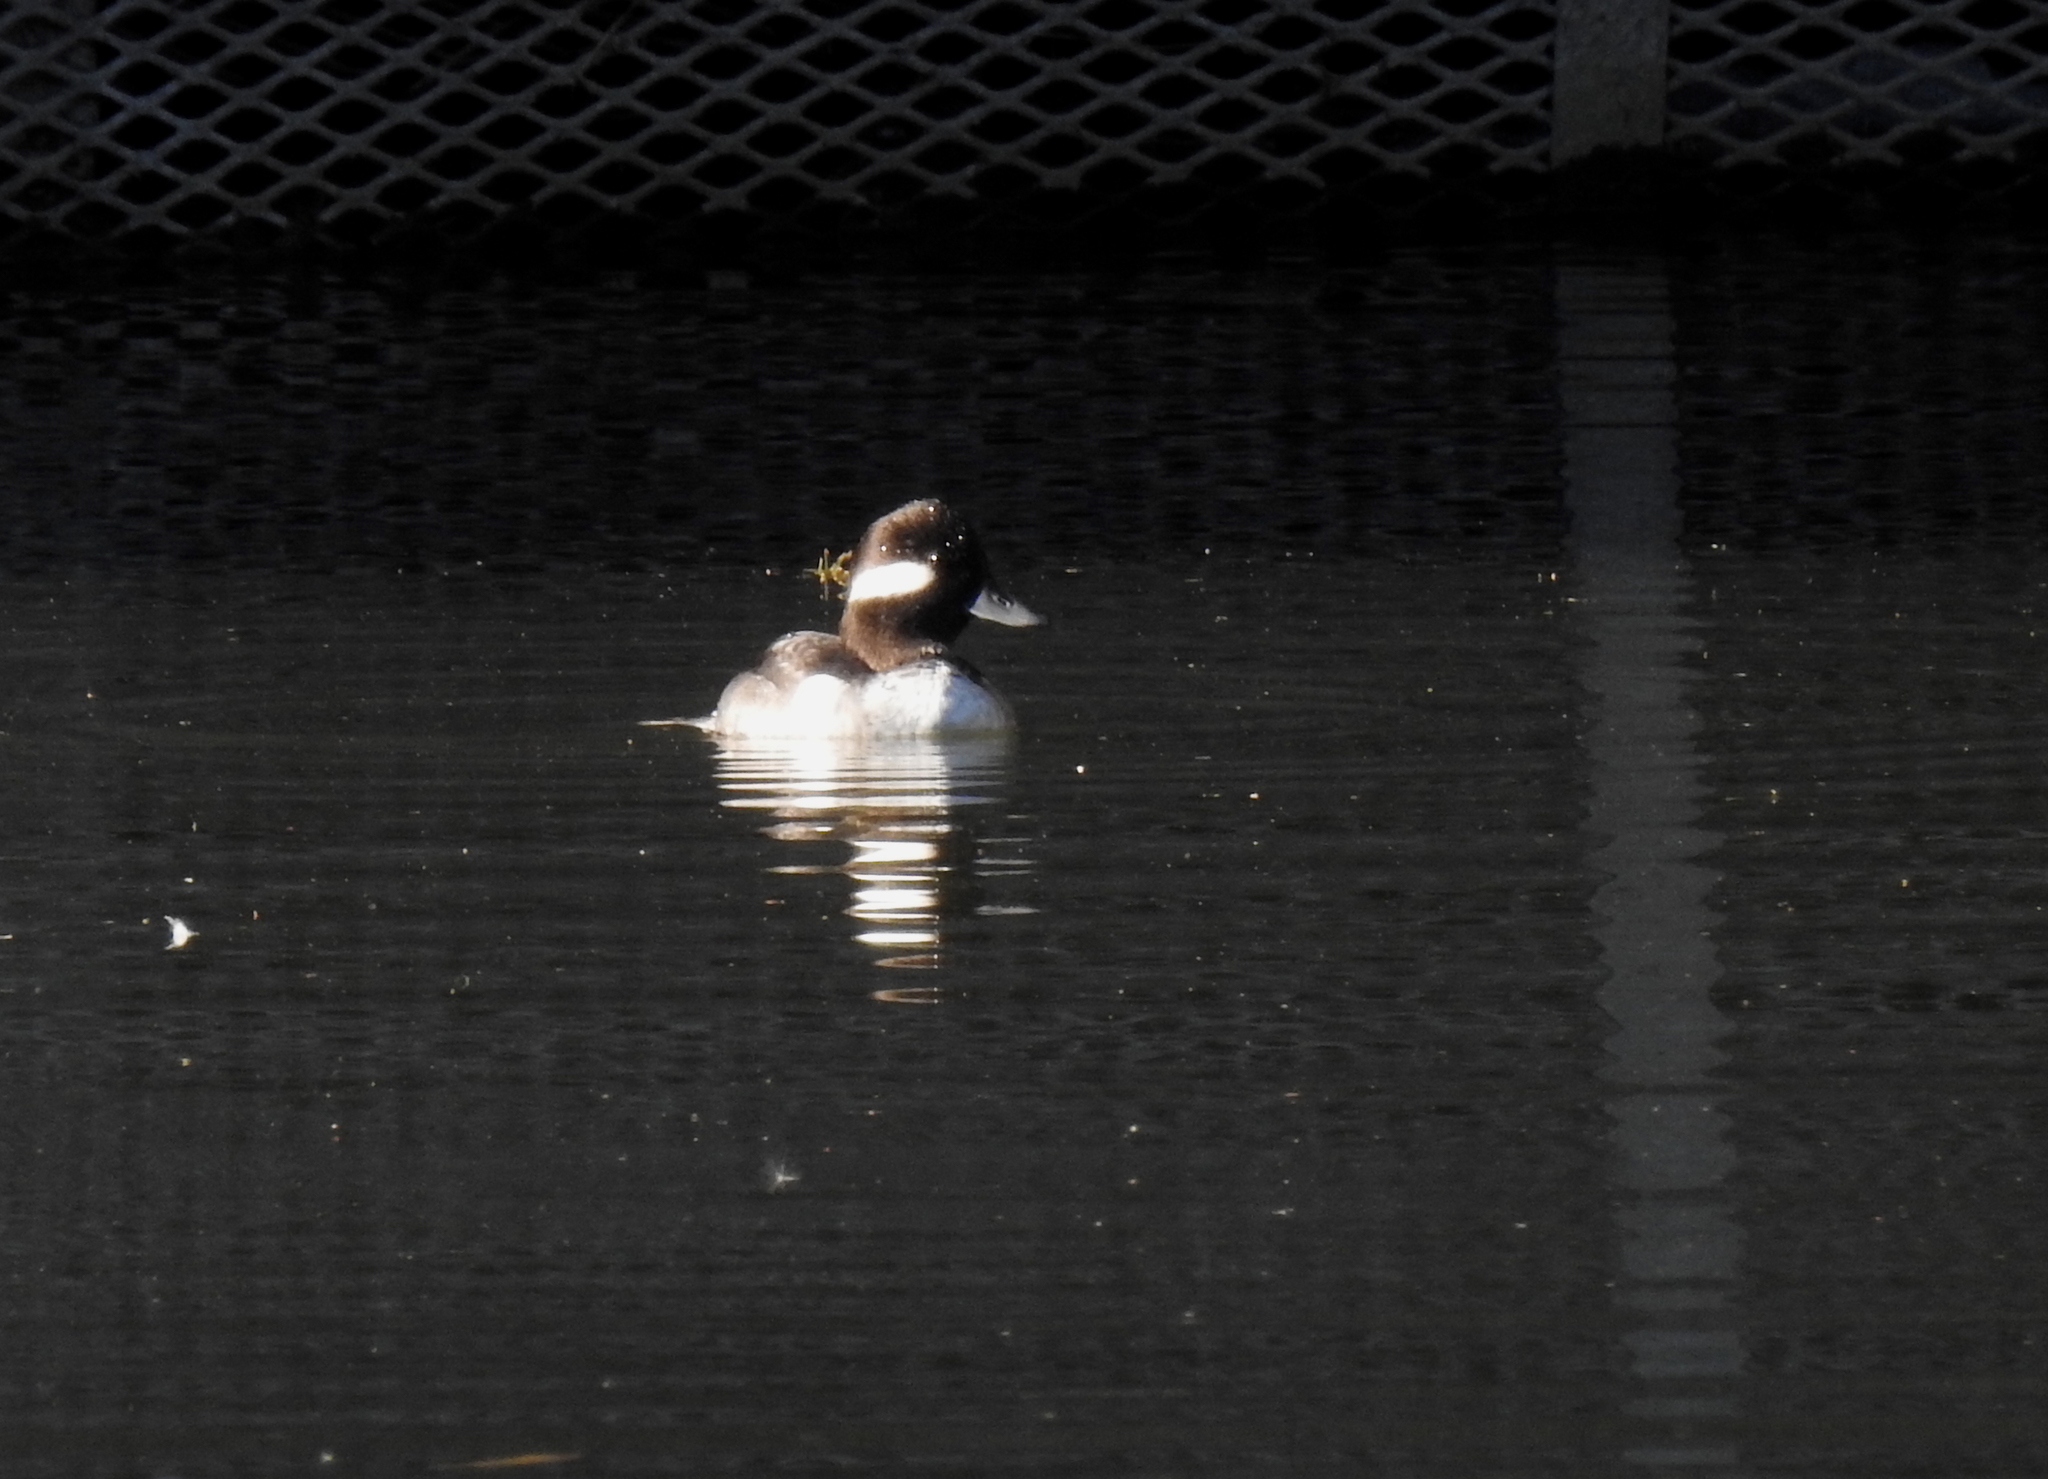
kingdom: Animalia
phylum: Chordata
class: Aves
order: Anseriformes
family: Anatidae
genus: Bucephala
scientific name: Bucephala albeola
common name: Bufflehead
